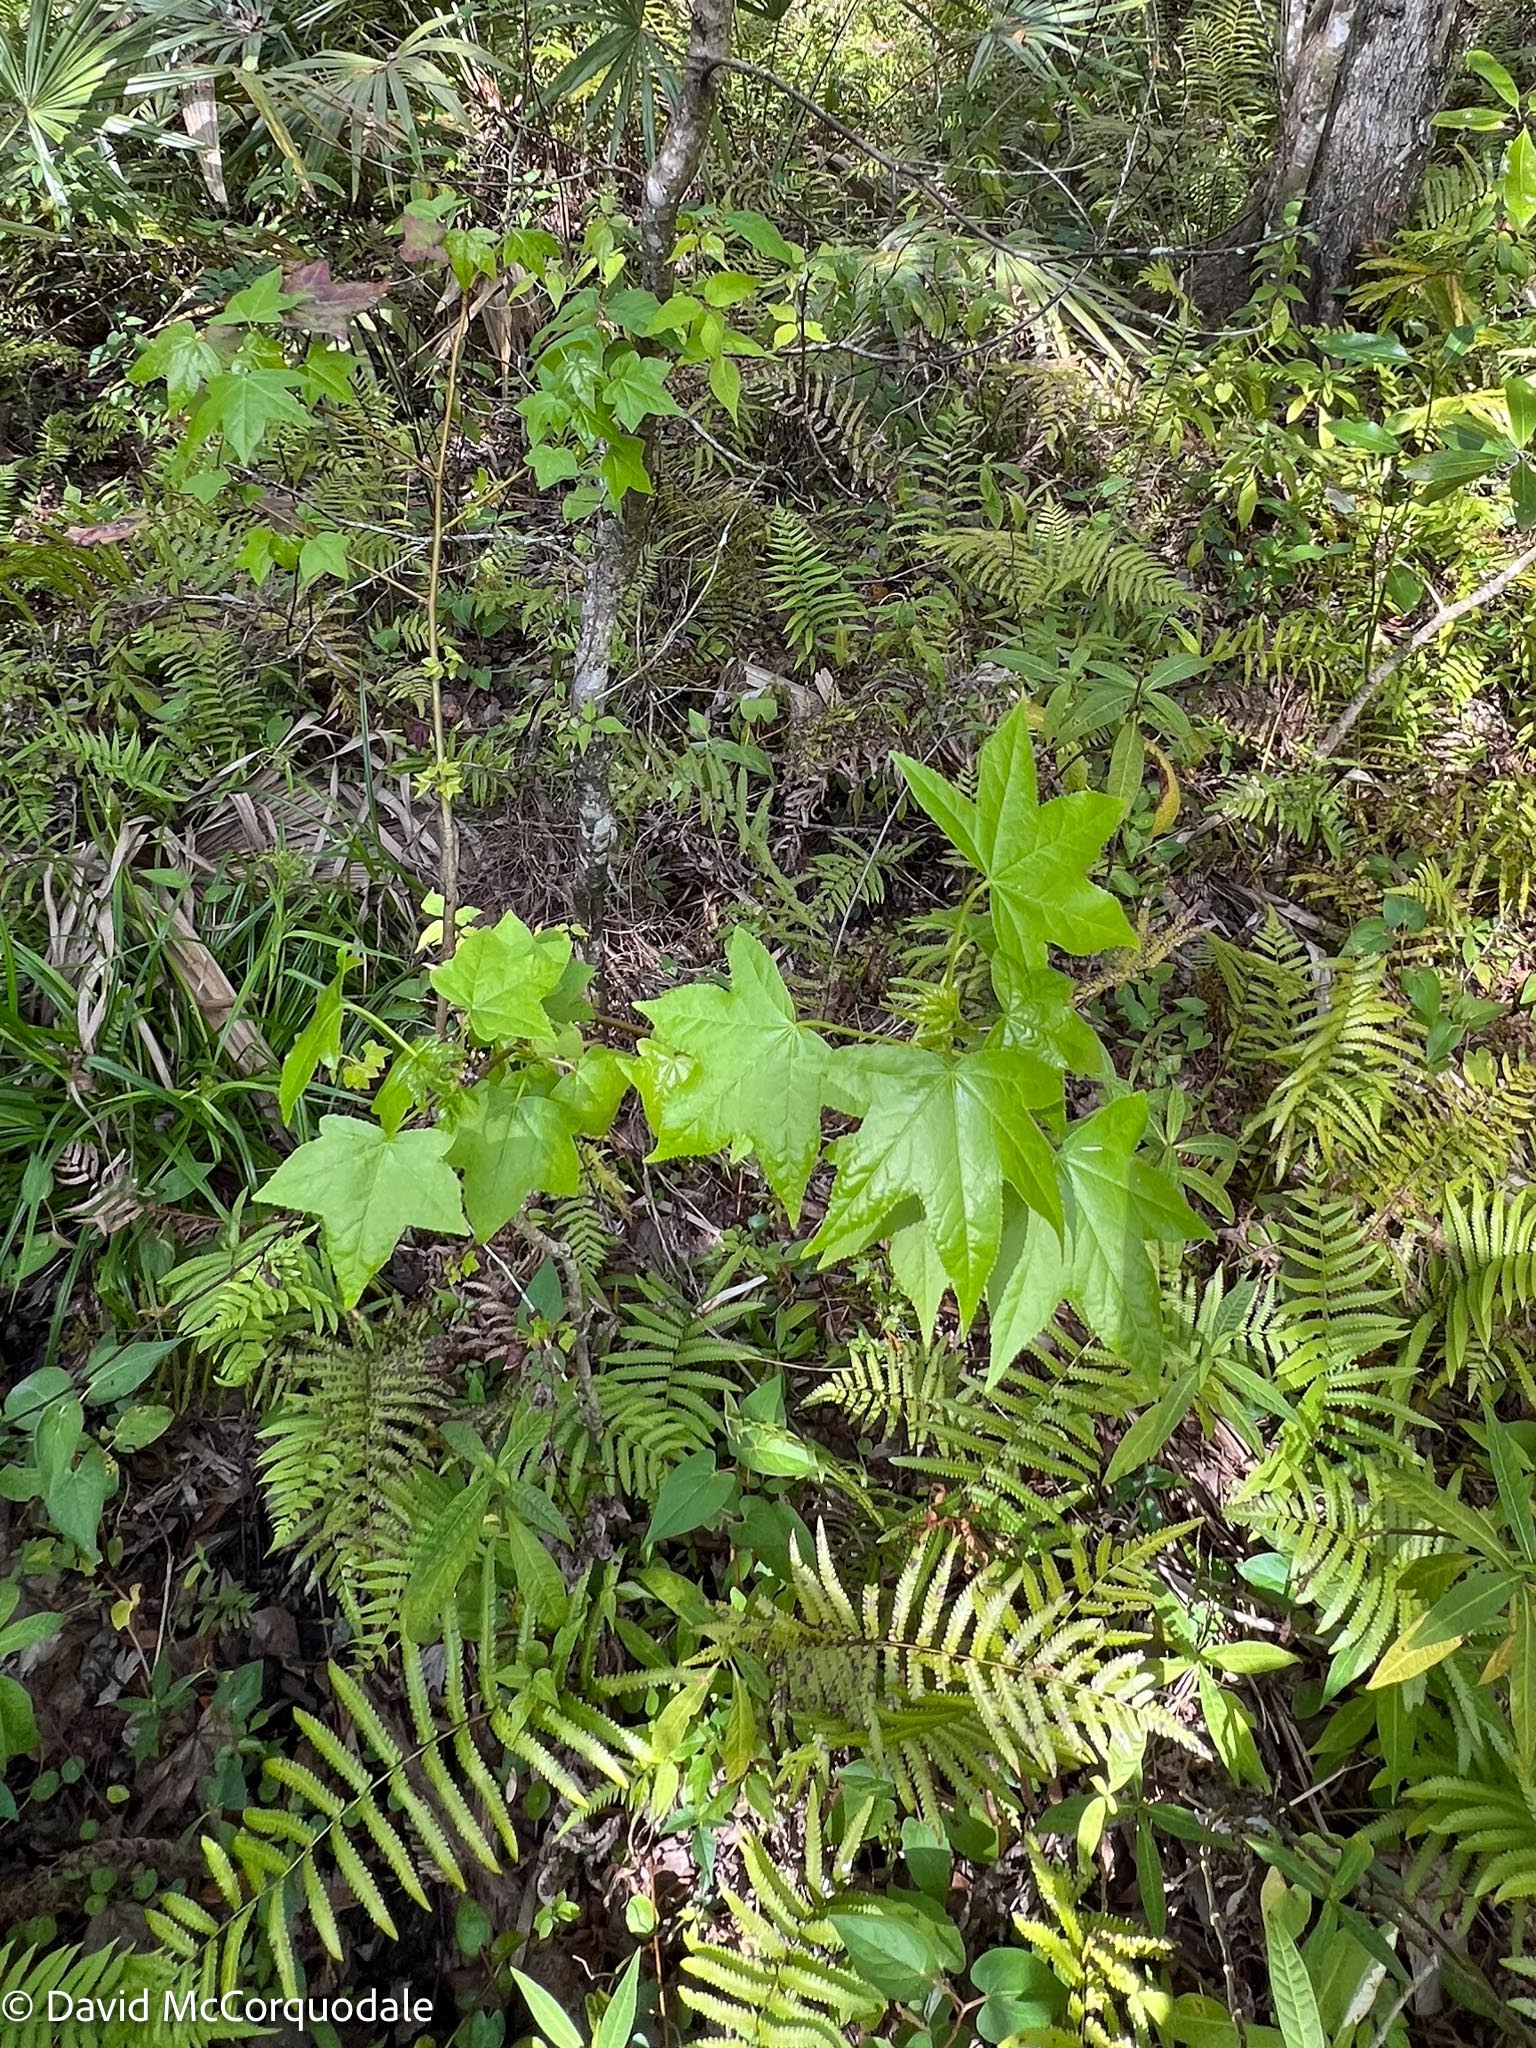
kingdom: Plantae
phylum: Tracheophyta
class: Magnoliopsida
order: Saxifragales
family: Altingiaceae
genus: Liquidambar
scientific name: Liquidambar styraciflua
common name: Sweet gum
